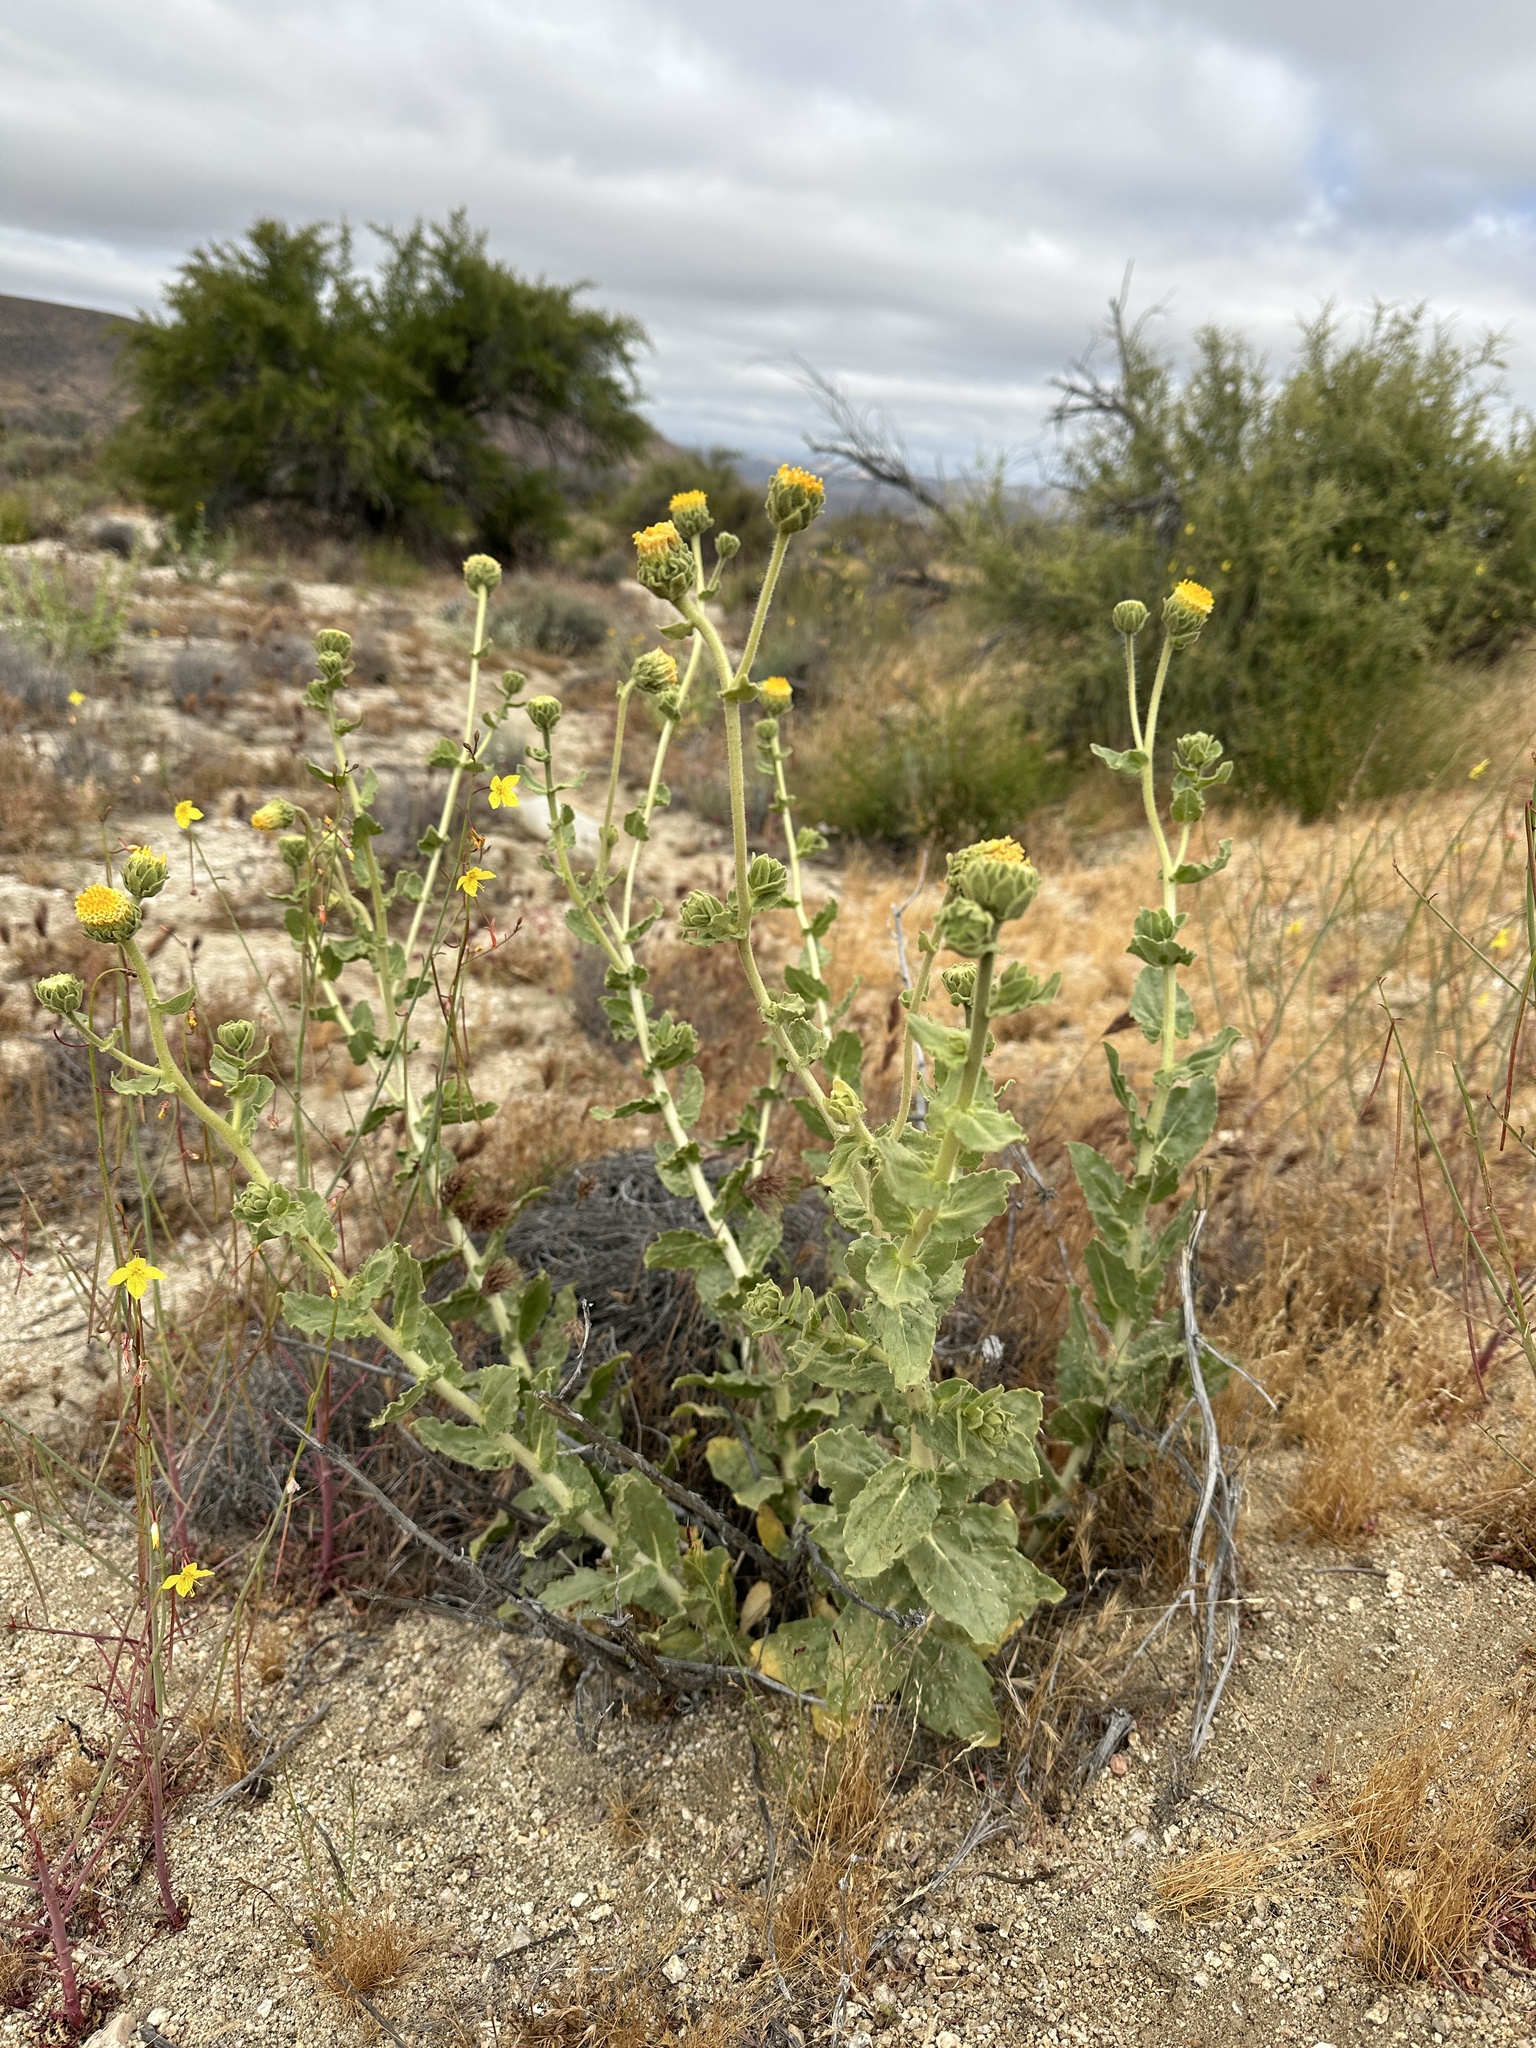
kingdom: Plantae
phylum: Tracheophyta
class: Magnoliopsida
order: Asterales
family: Asteraceae
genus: Geraea
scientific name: Geraea viscida
